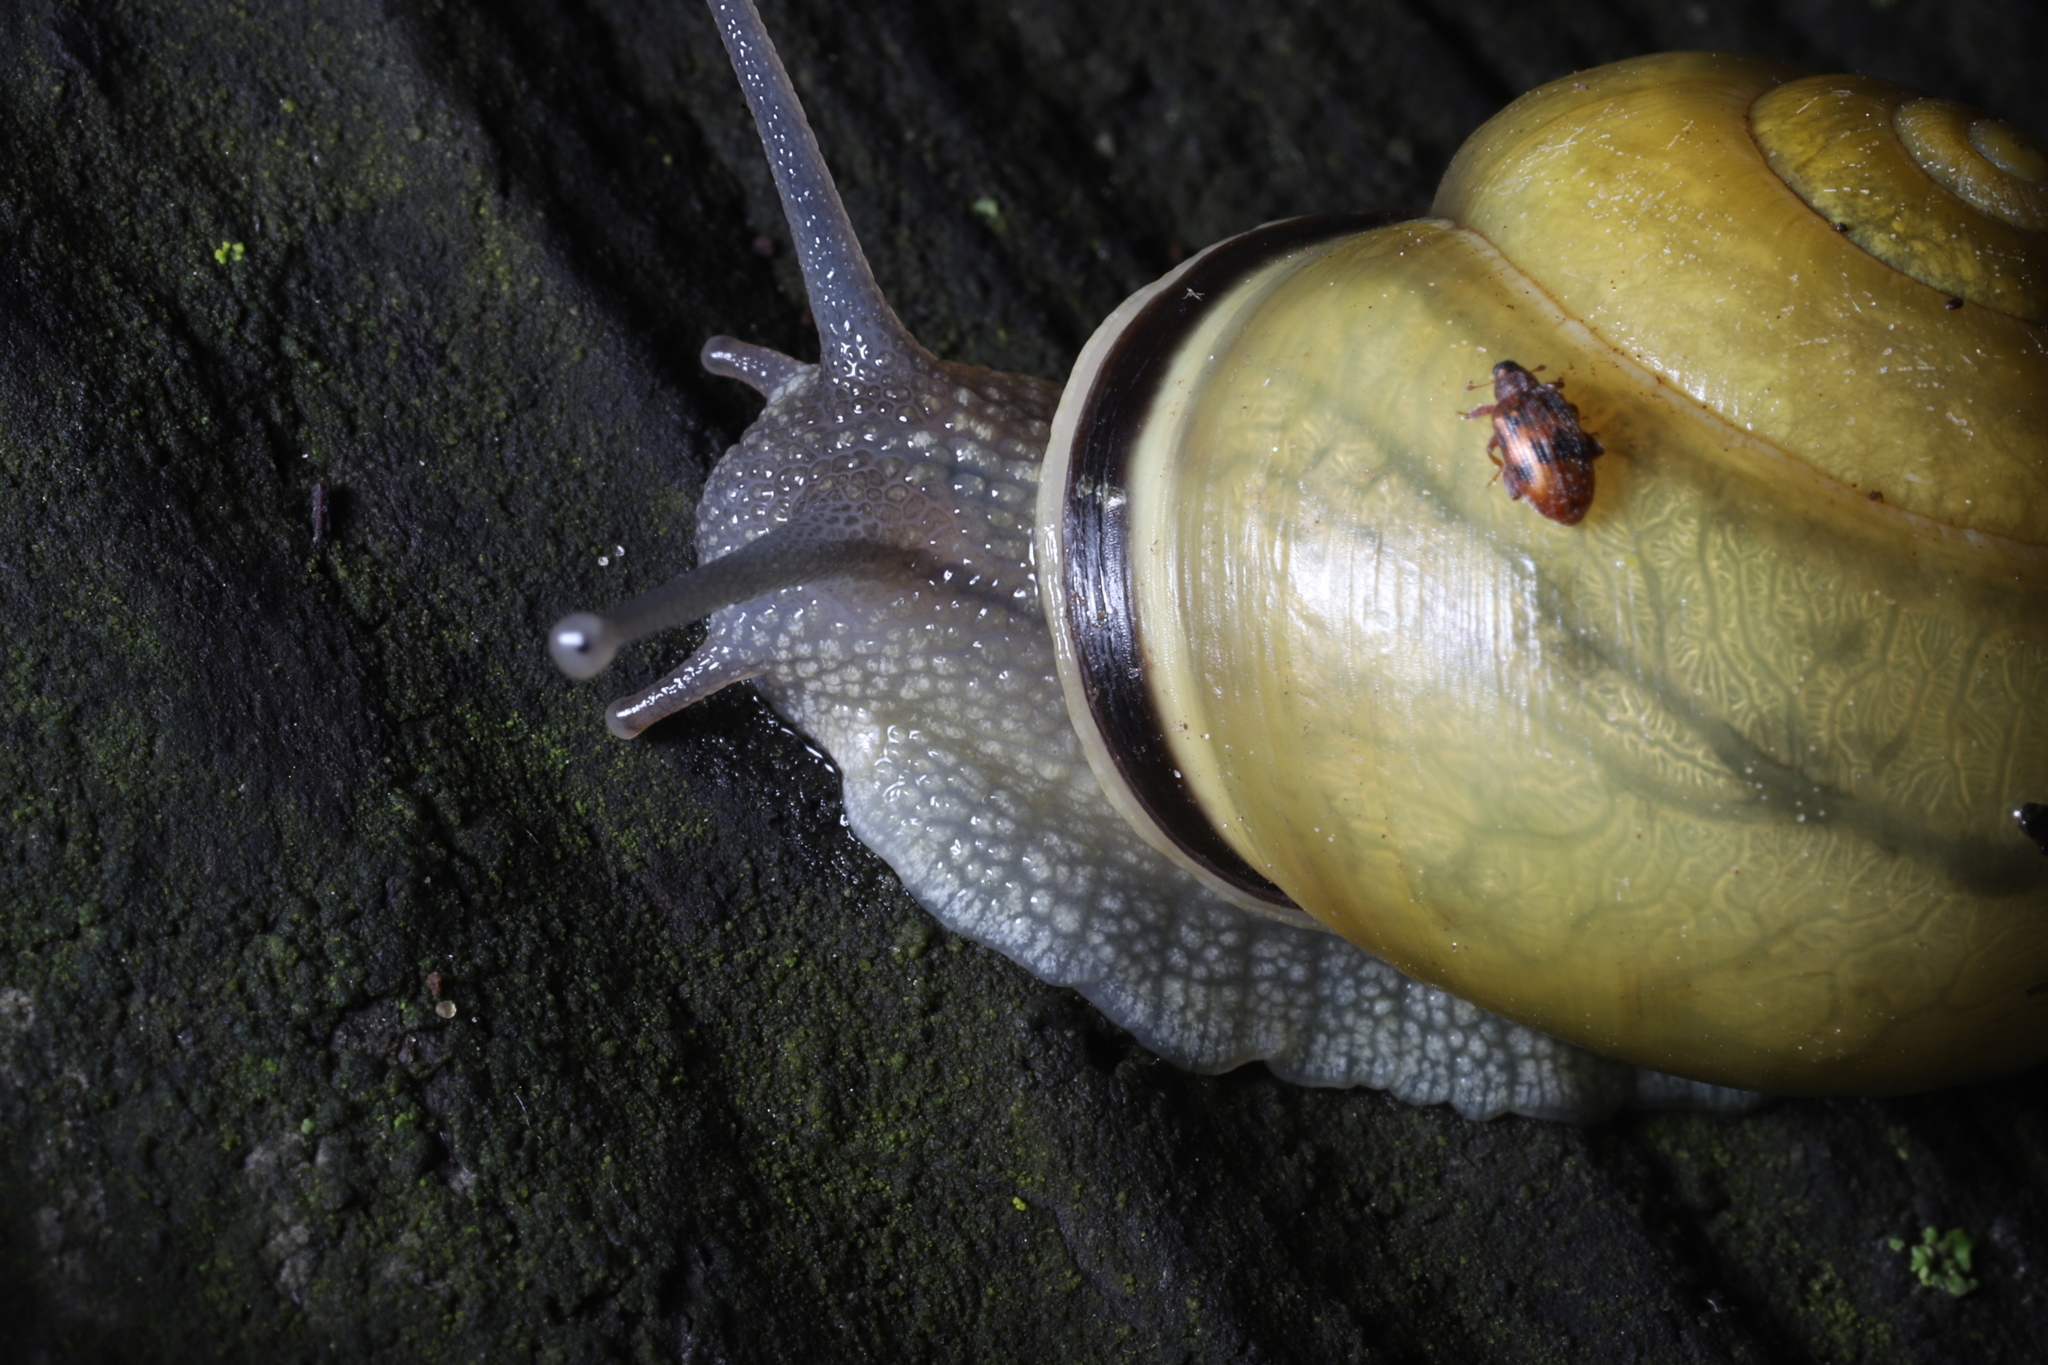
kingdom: Animalia
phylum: Mollusca
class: Gastropoda
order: Stylommatophora
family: Helicidae
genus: Cepaea
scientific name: Cepaea nemoralis
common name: Grovesnail
